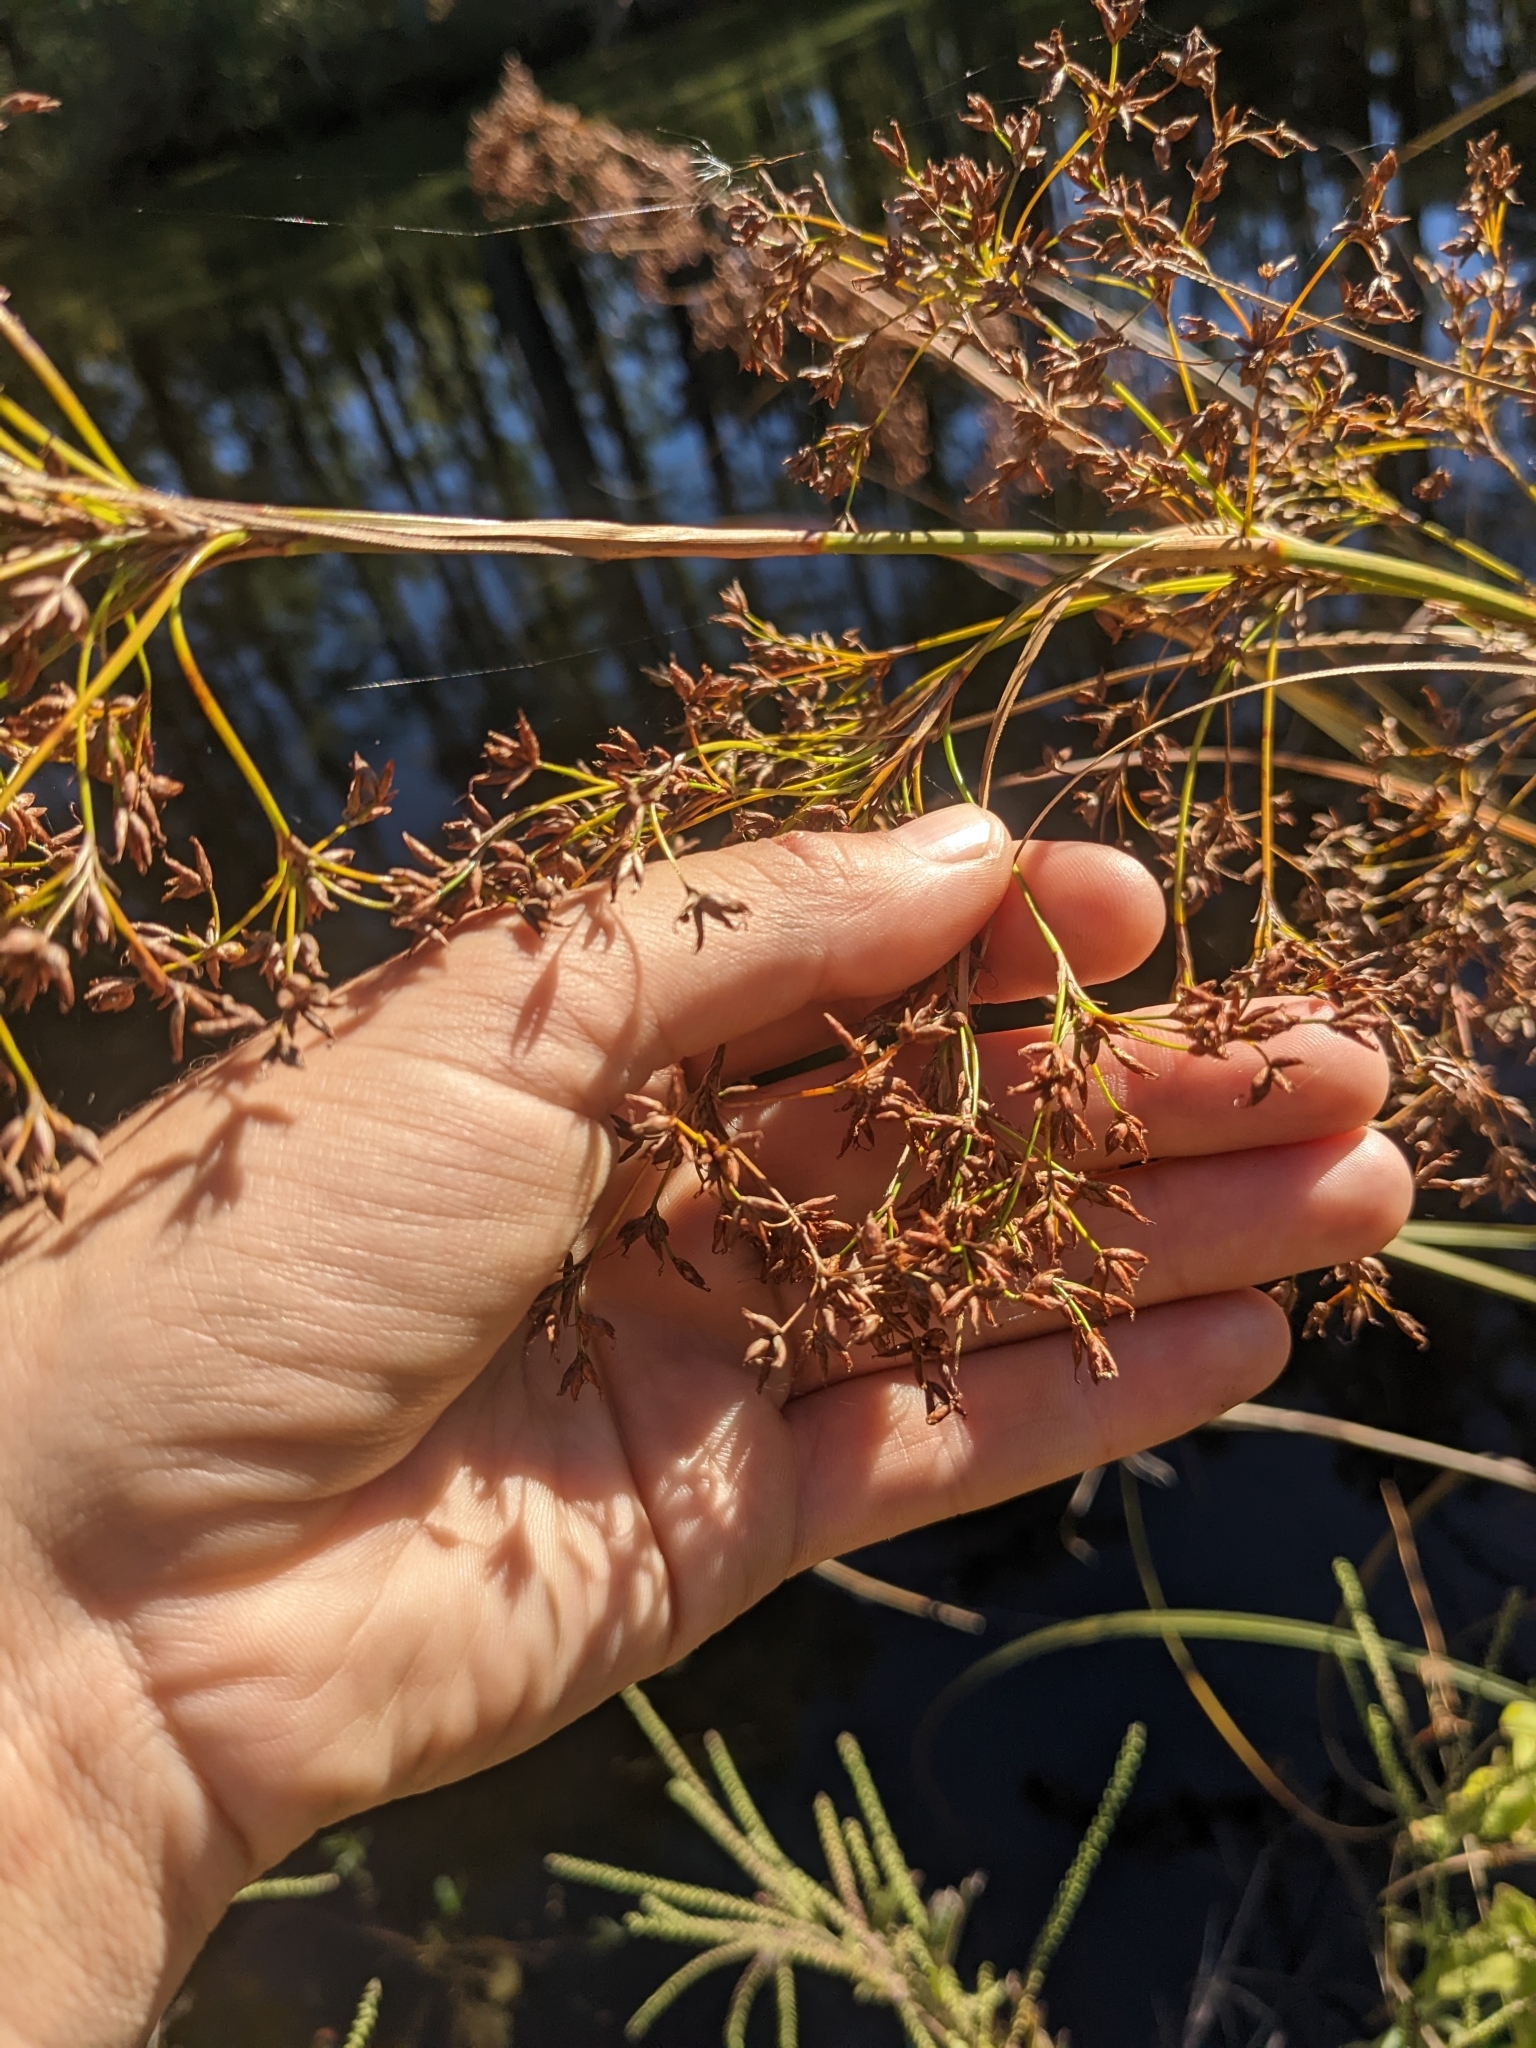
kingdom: Plantae
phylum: Tracheophyta
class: Liliopsida
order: Poales
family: Cyperaceae
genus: Cladium
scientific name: Cladium mariscus
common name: Great fen-sedge
